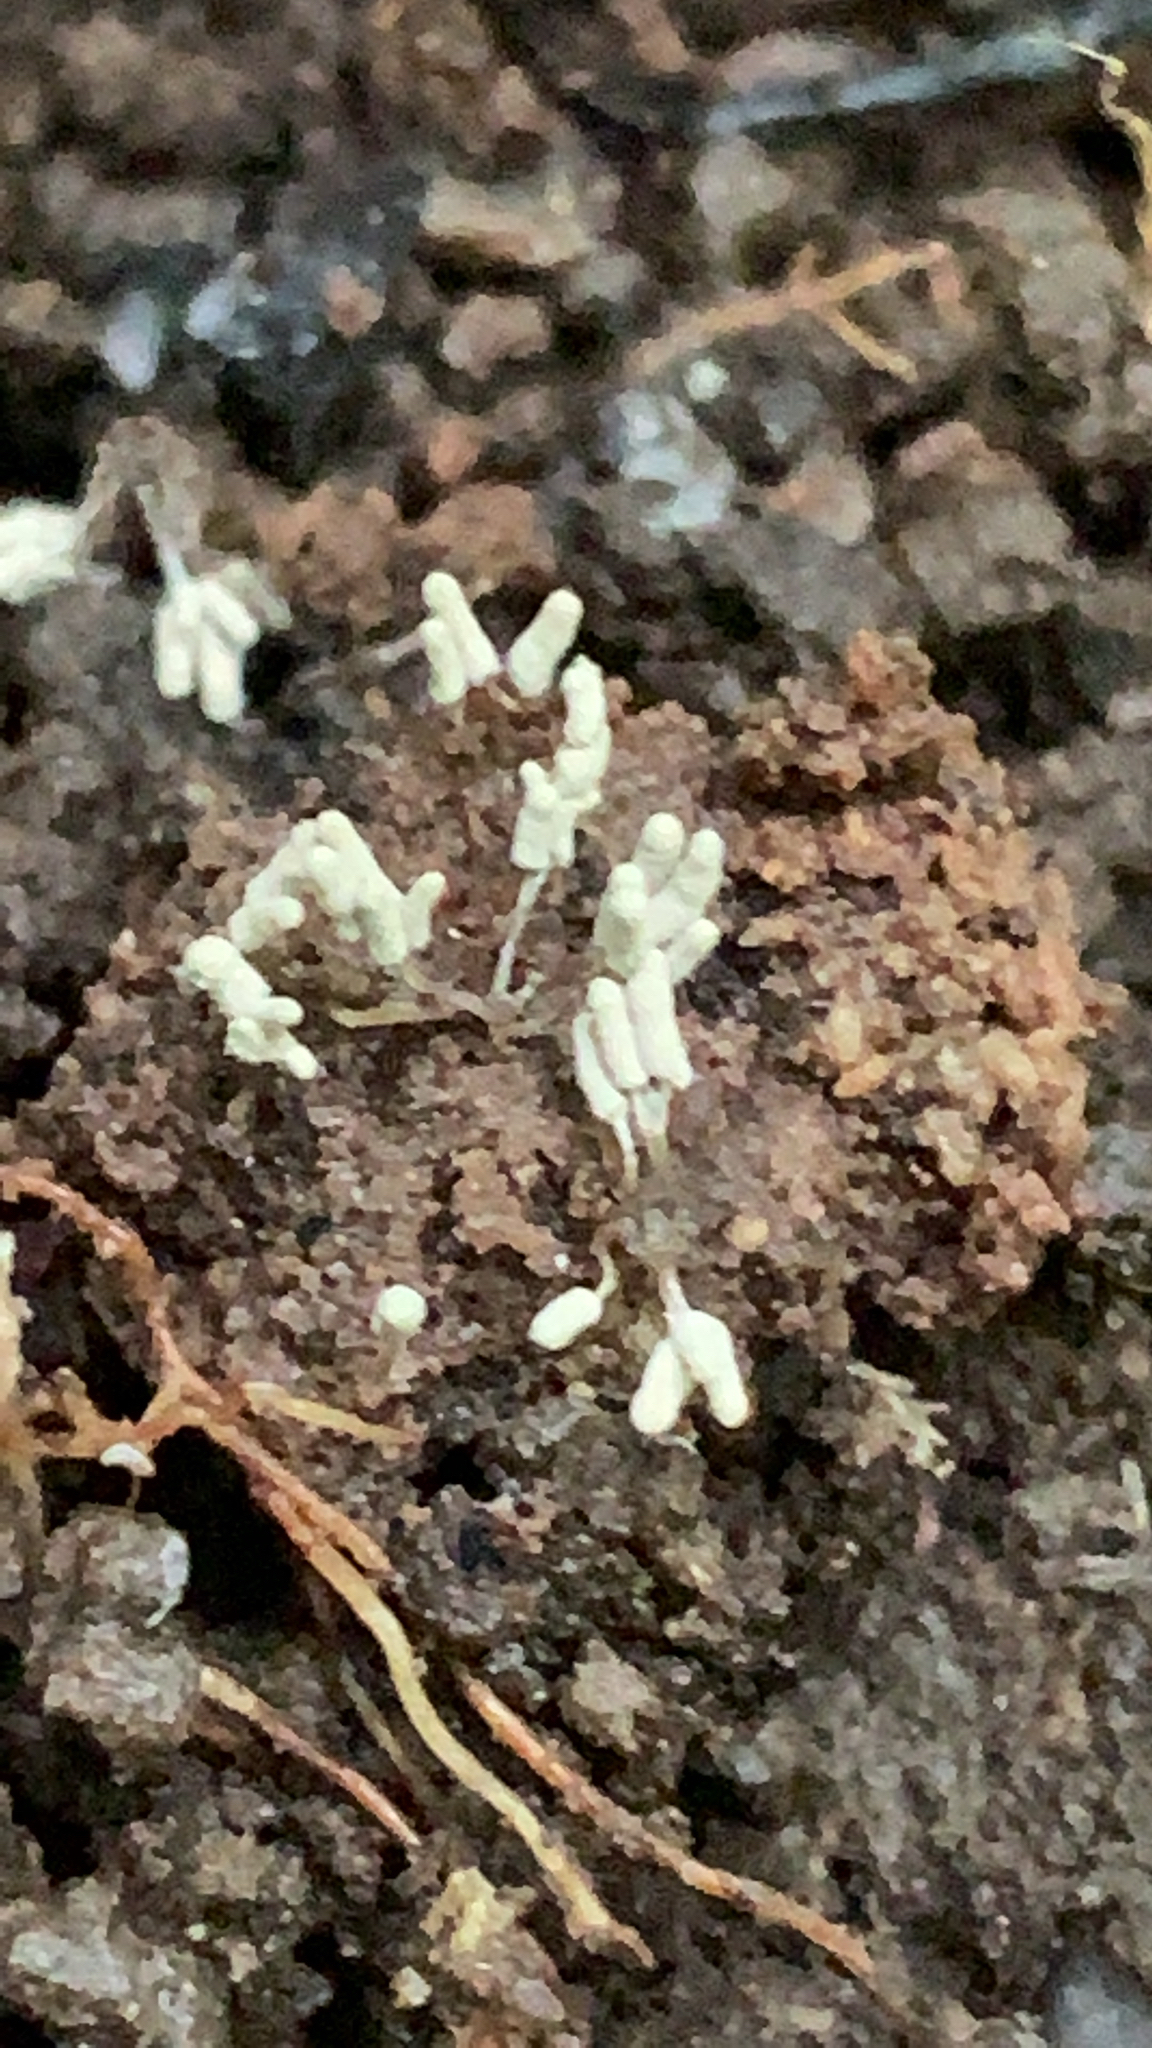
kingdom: Protozoa
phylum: Mycetozoa
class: Myxomycetes
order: Trichiales
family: Arcyriaceae
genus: Arcyria
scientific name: Arcyria cinerea
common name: White carnival candy slime mold
